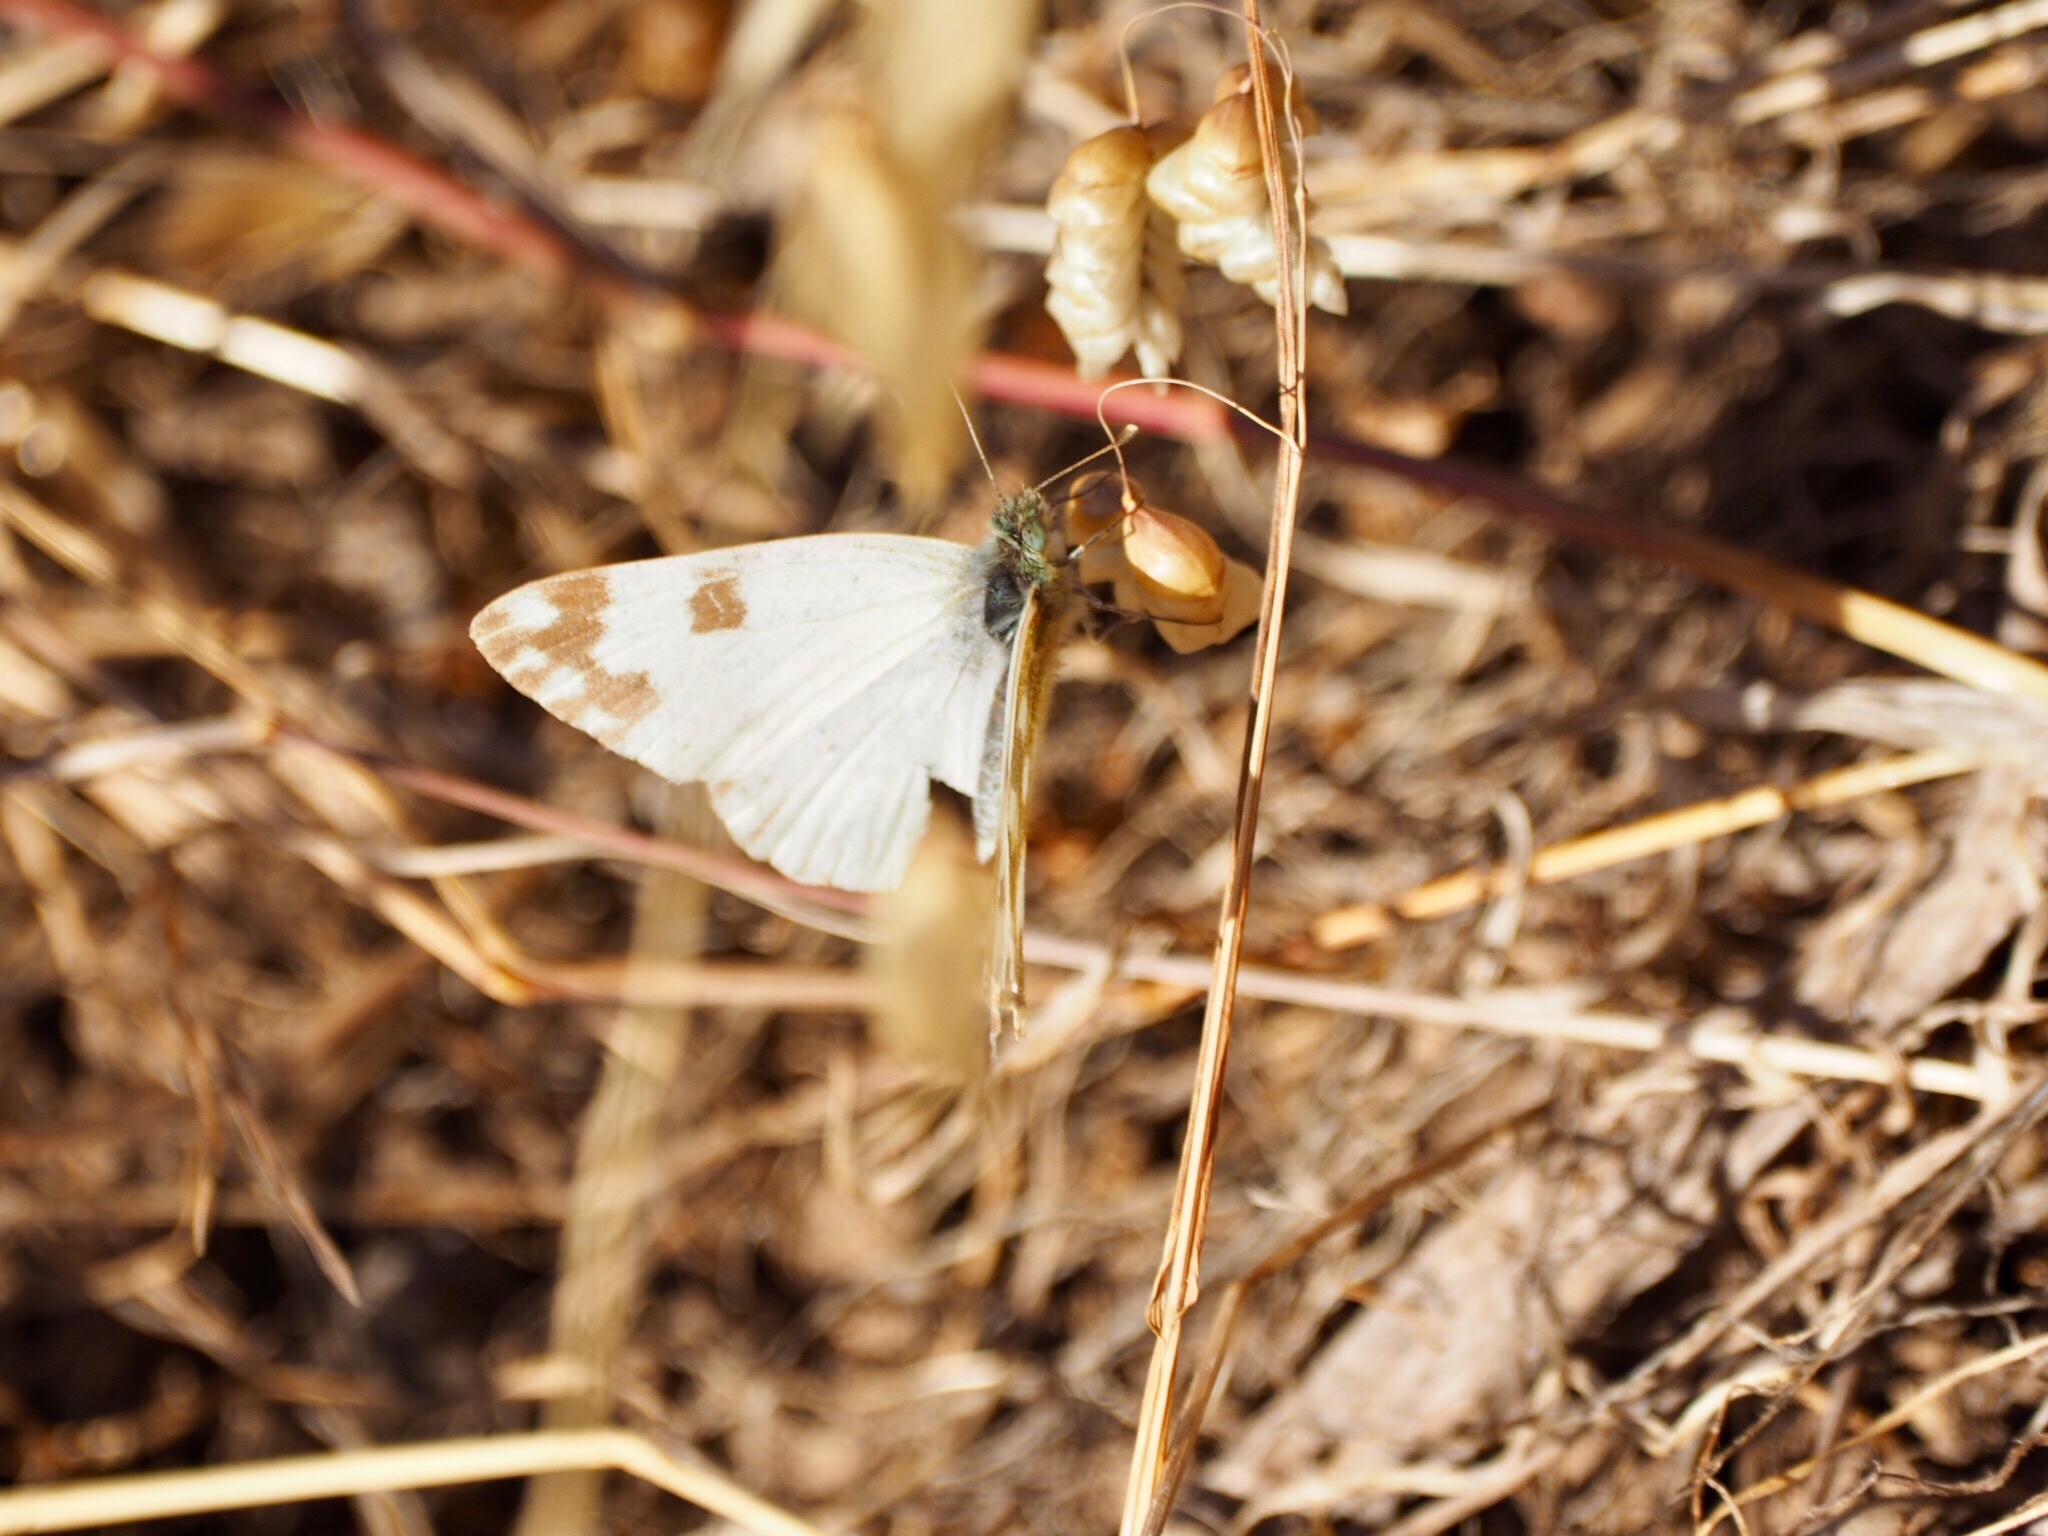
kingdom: Animalia
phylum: Arthropoda
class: Insecta
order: Lepidoptera
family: Pieridae
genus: Pontia
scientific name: Pontia daplidice
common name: Bath white
